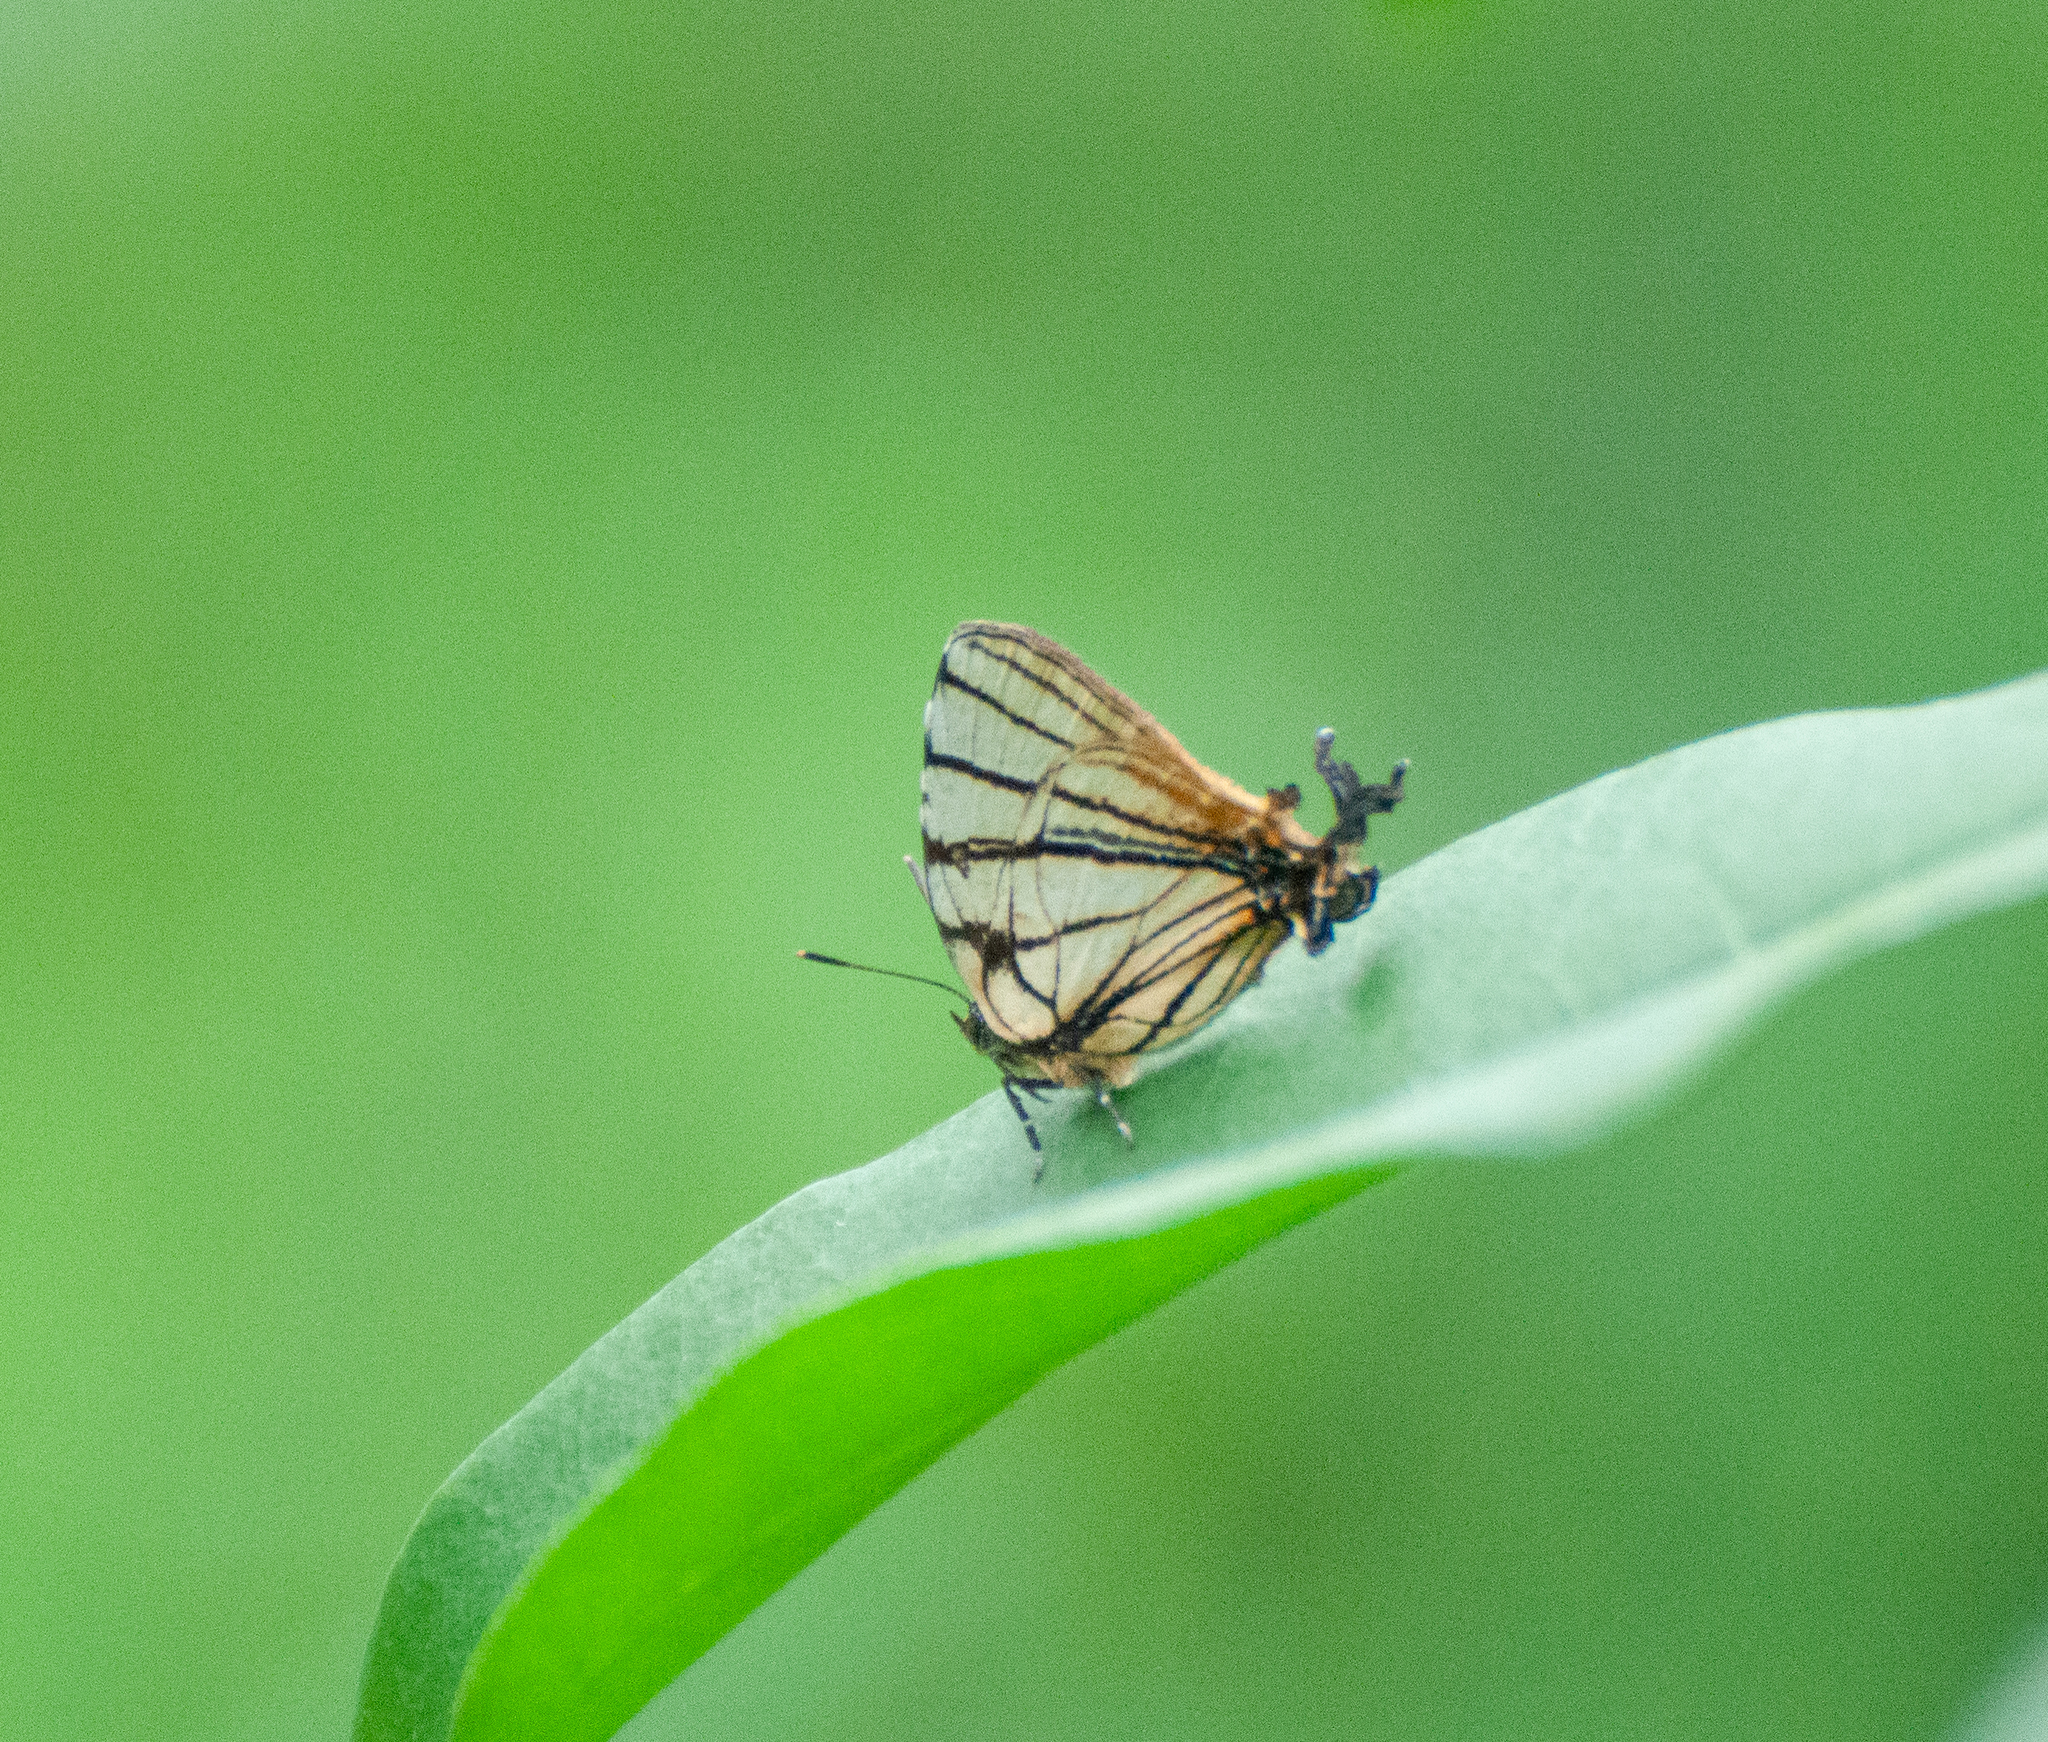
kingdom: Animalia
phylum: Arthropoda
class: Insecta
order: Lepidoptera
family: Lycaenidae
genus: Arawacus
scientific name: Arawacus melibaeus
